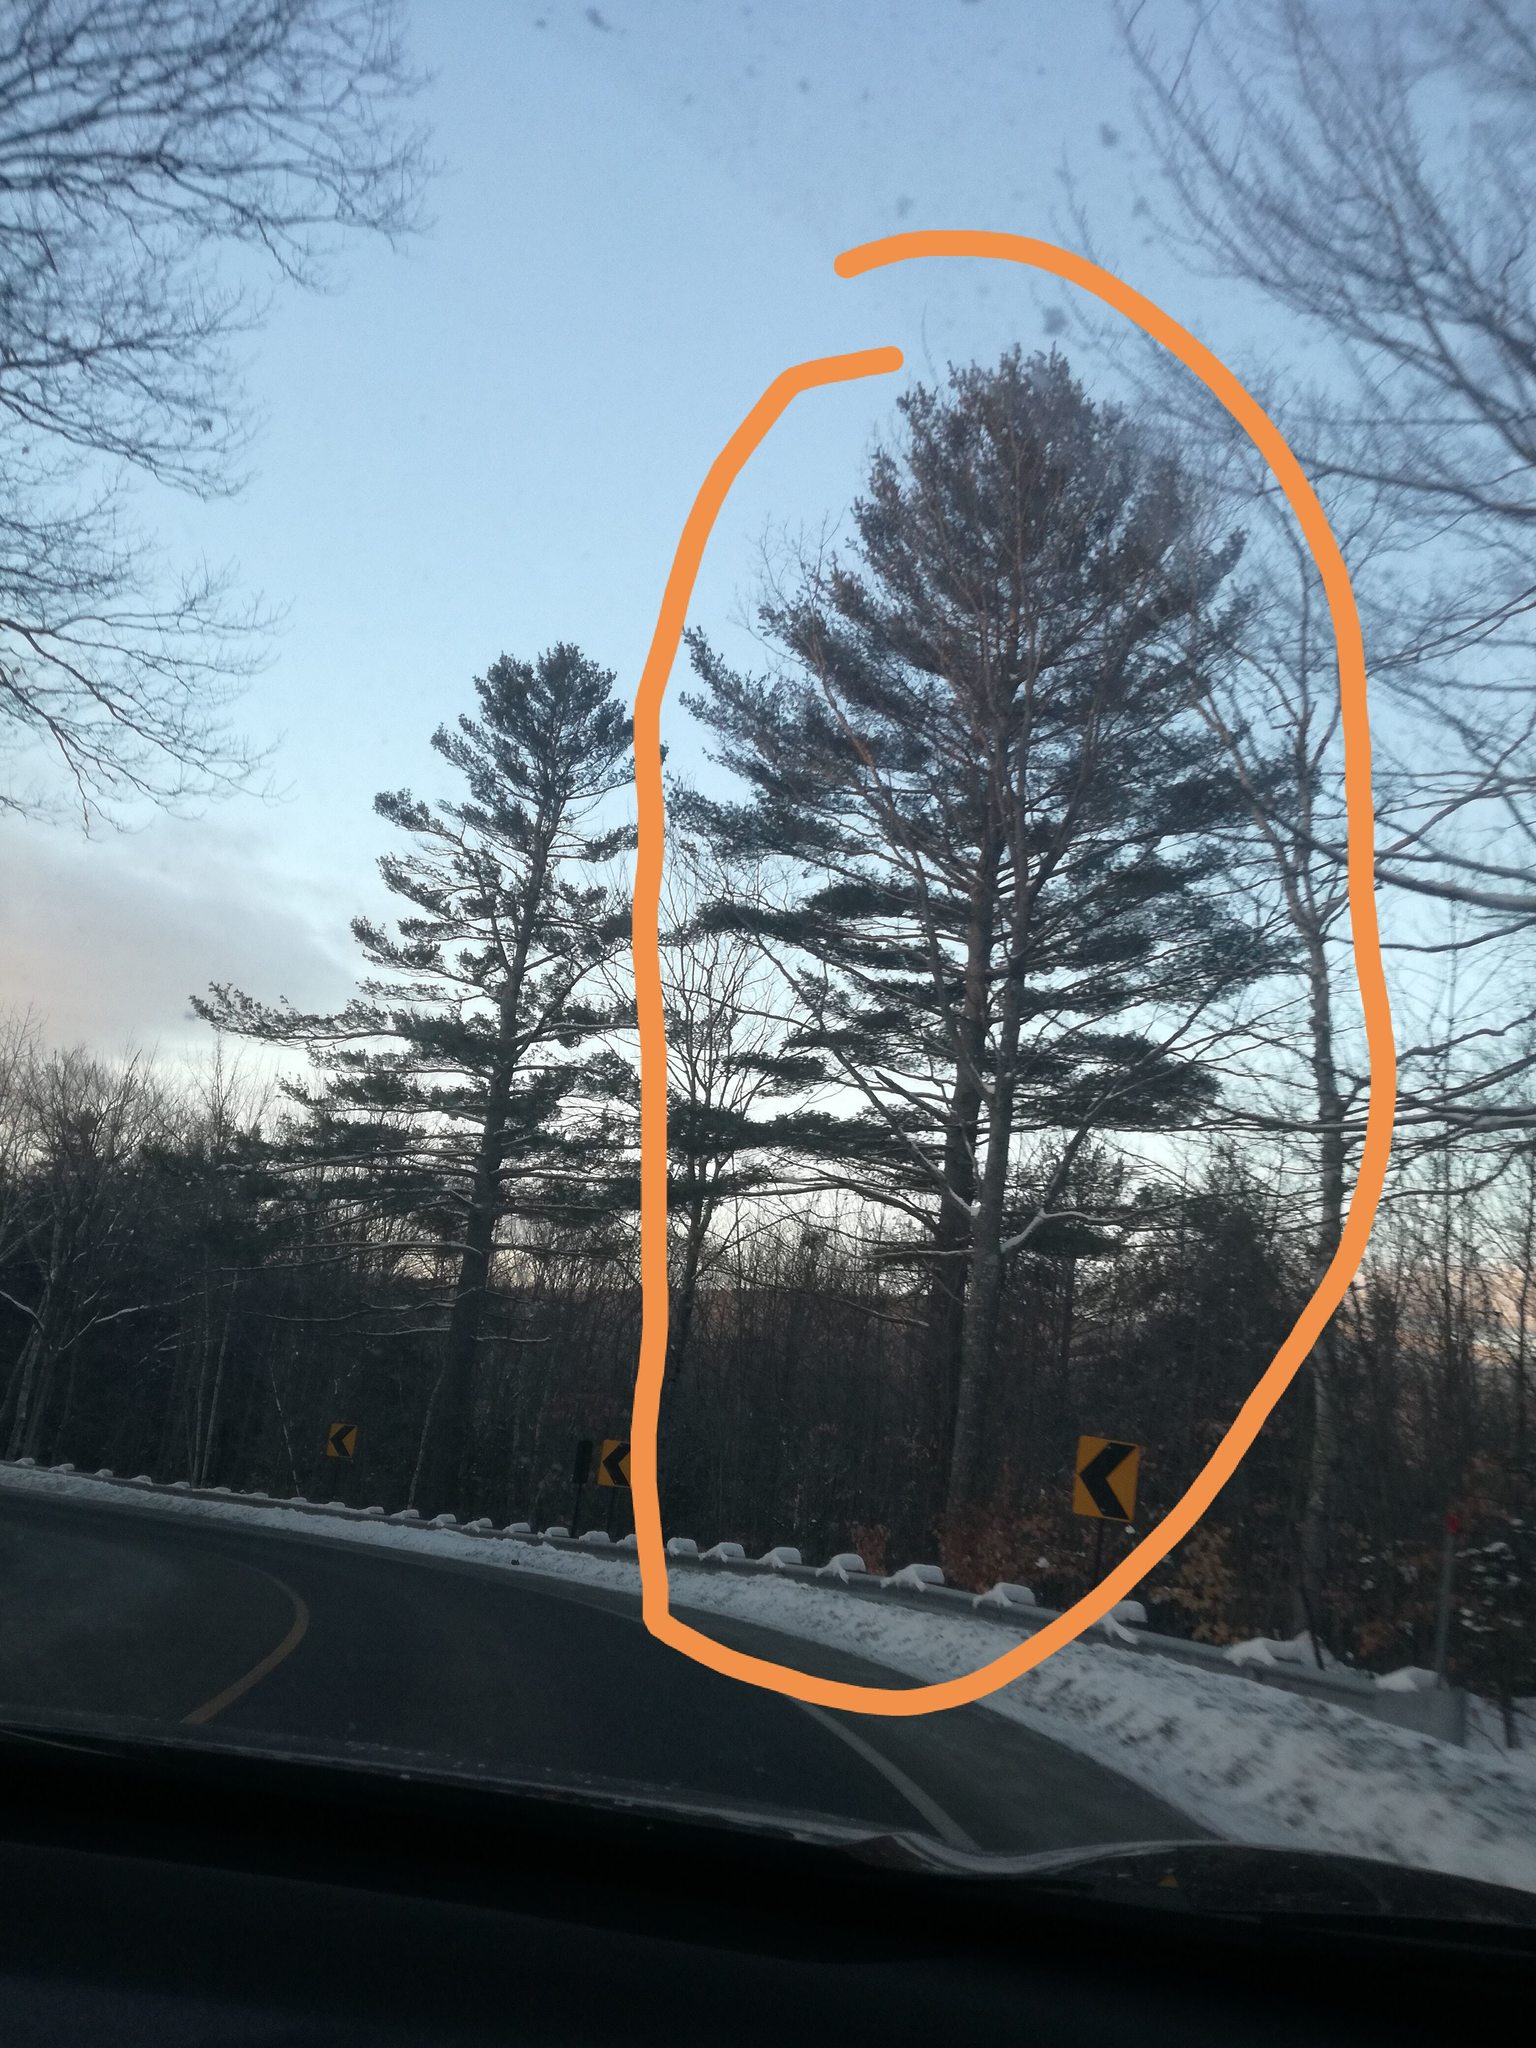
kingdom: Plantae
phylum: Tracheophyta
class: Pinopsida
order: Pinales
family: Pinaceae
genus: Pinus
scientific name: Pinus strobus
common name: Weymouth pine
